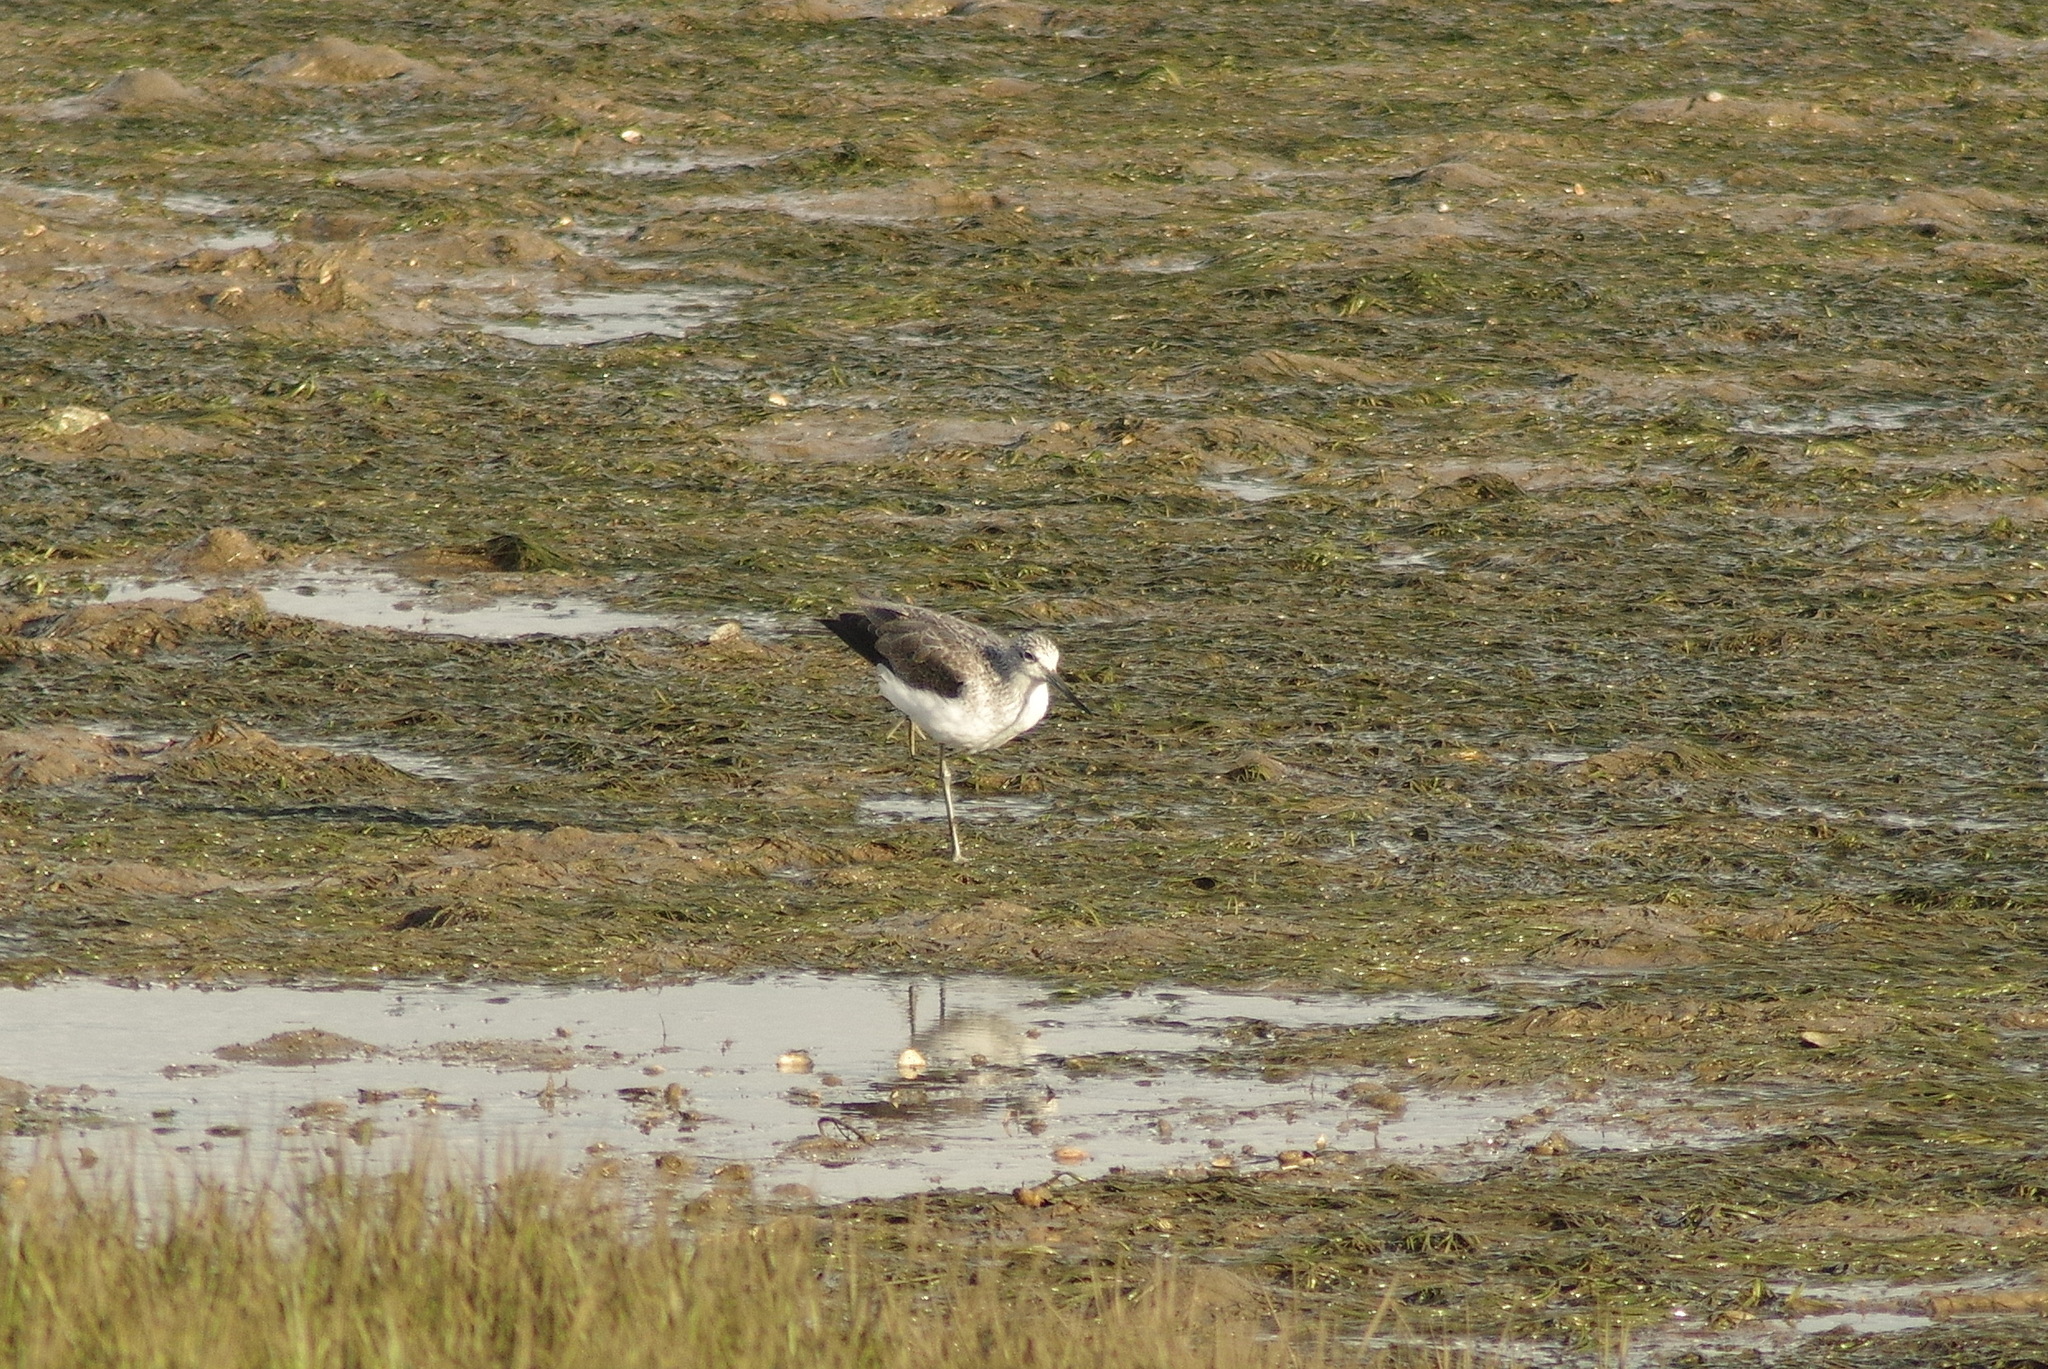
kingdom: Animalia
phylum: Chordata
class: Aves
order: Charadriiformes
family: Scolopacidae
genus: Tringa
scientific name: Tringa nebularia
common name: Common greenshank
